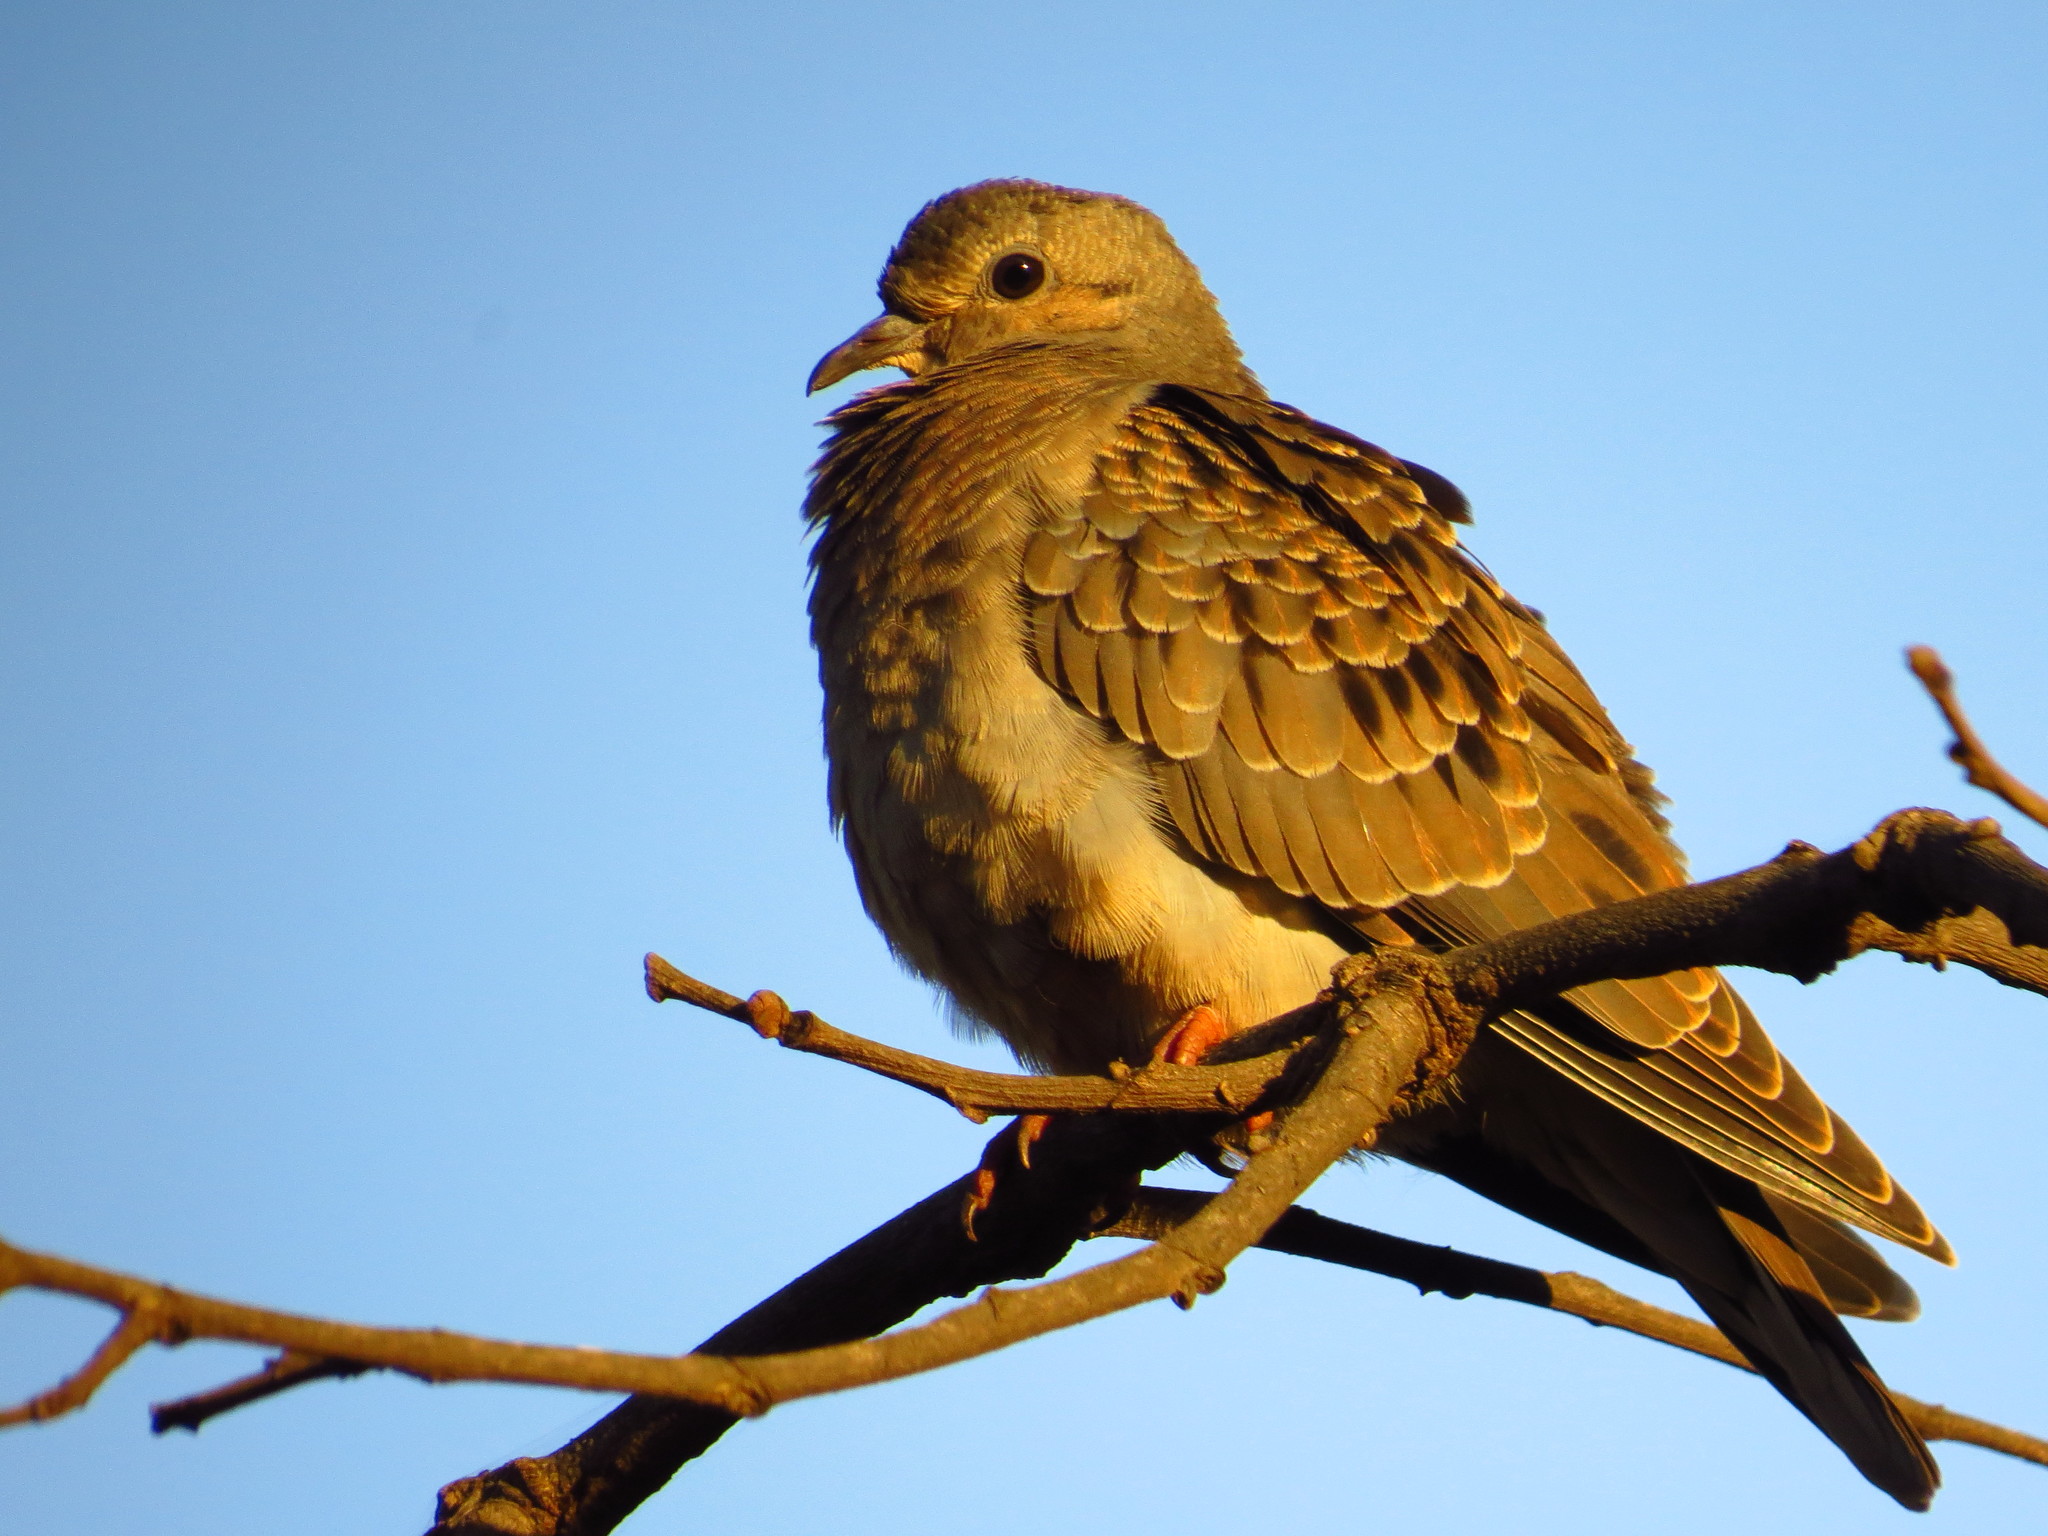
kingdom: Animalia
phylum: Chordata
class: Aves
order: Columbiformes
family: Columbidae
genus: Zenaida
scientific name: Zenaida auriculata
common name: Eared dove
